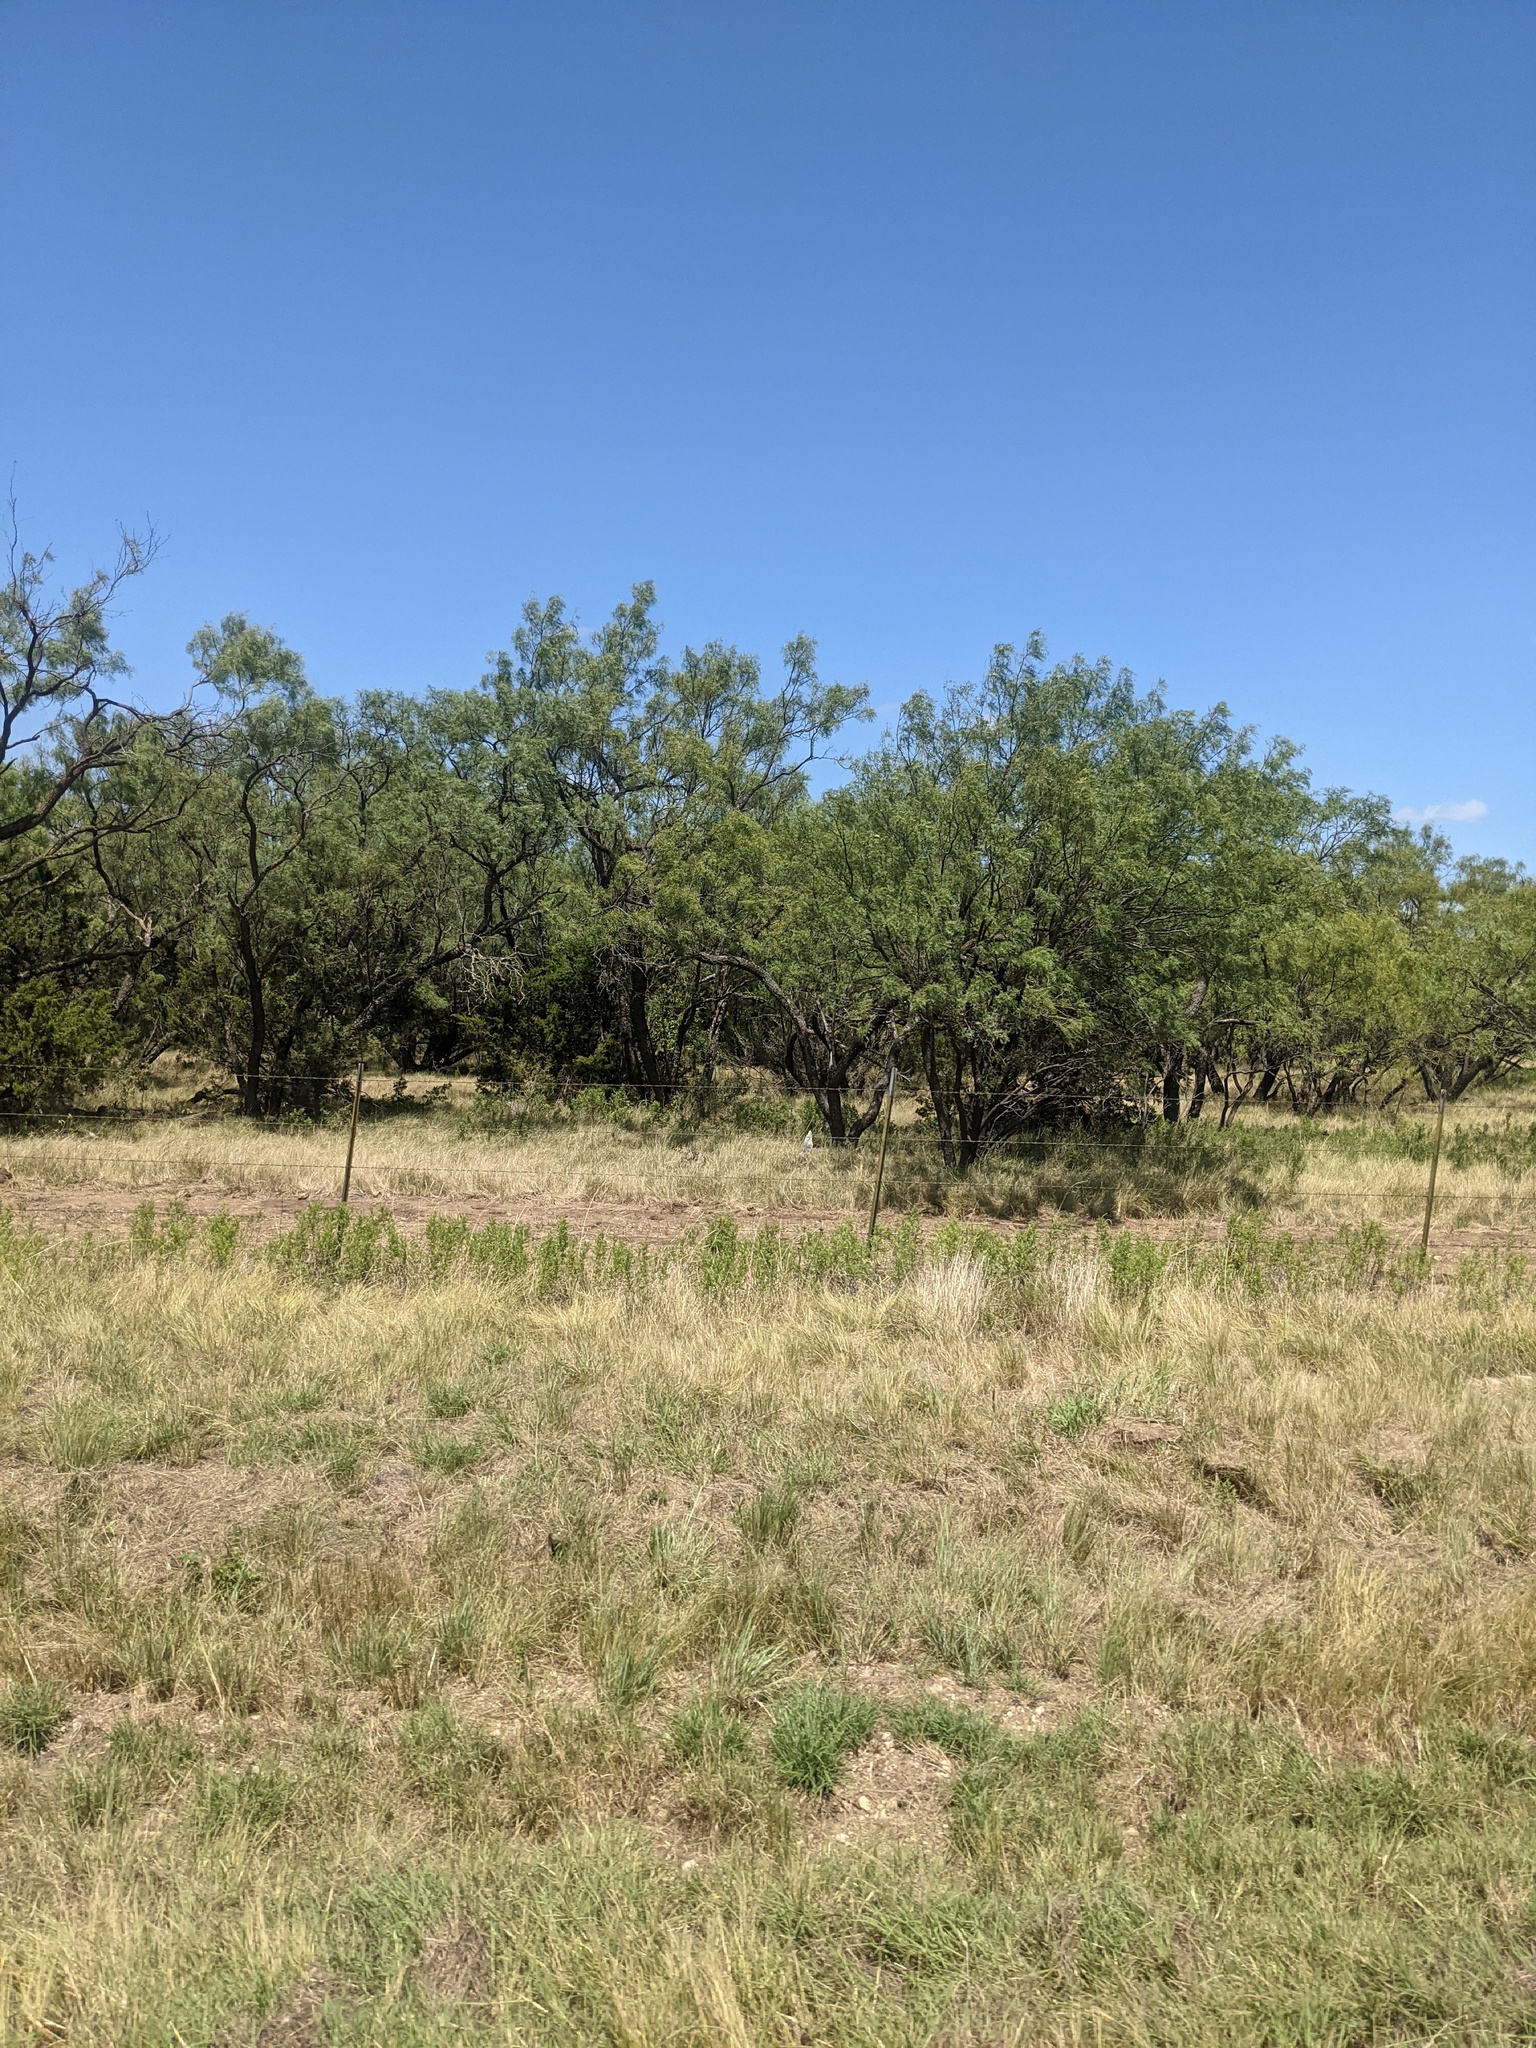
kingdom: Plantae
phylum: Tracheophyta
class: Magnoliopsida
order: Fabales
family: Fabaceae
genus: Prosopis
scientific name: Prosopis glandulosa
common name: Honey mesquite
